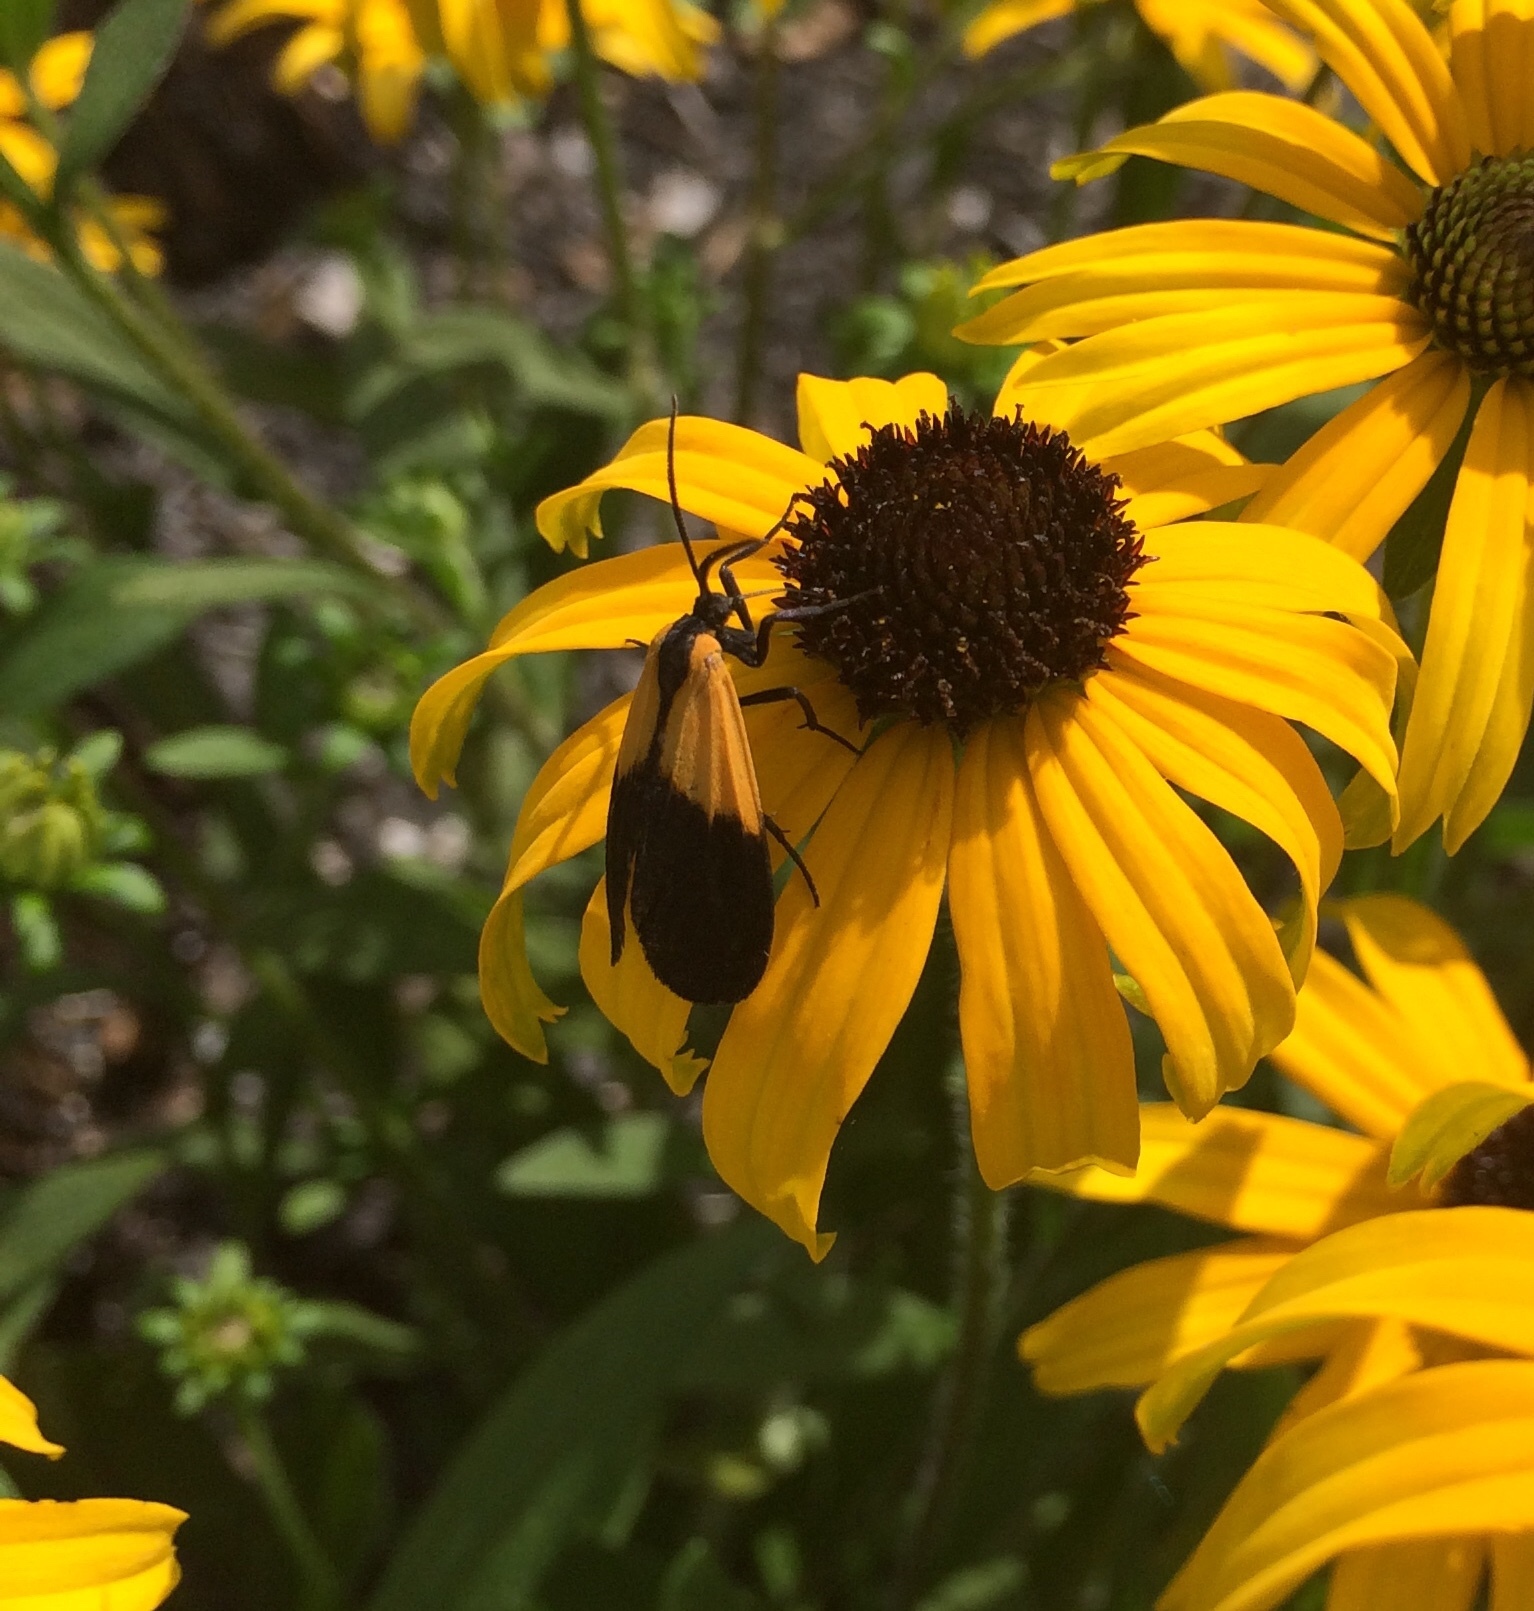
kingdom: Animalia
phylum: Arthropoda
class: Insecta
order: Lepidoptera
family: Erebidae
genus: Lycomorpha
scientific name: Lycomorpha pholus
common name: Black-and-yellow lichen moth
